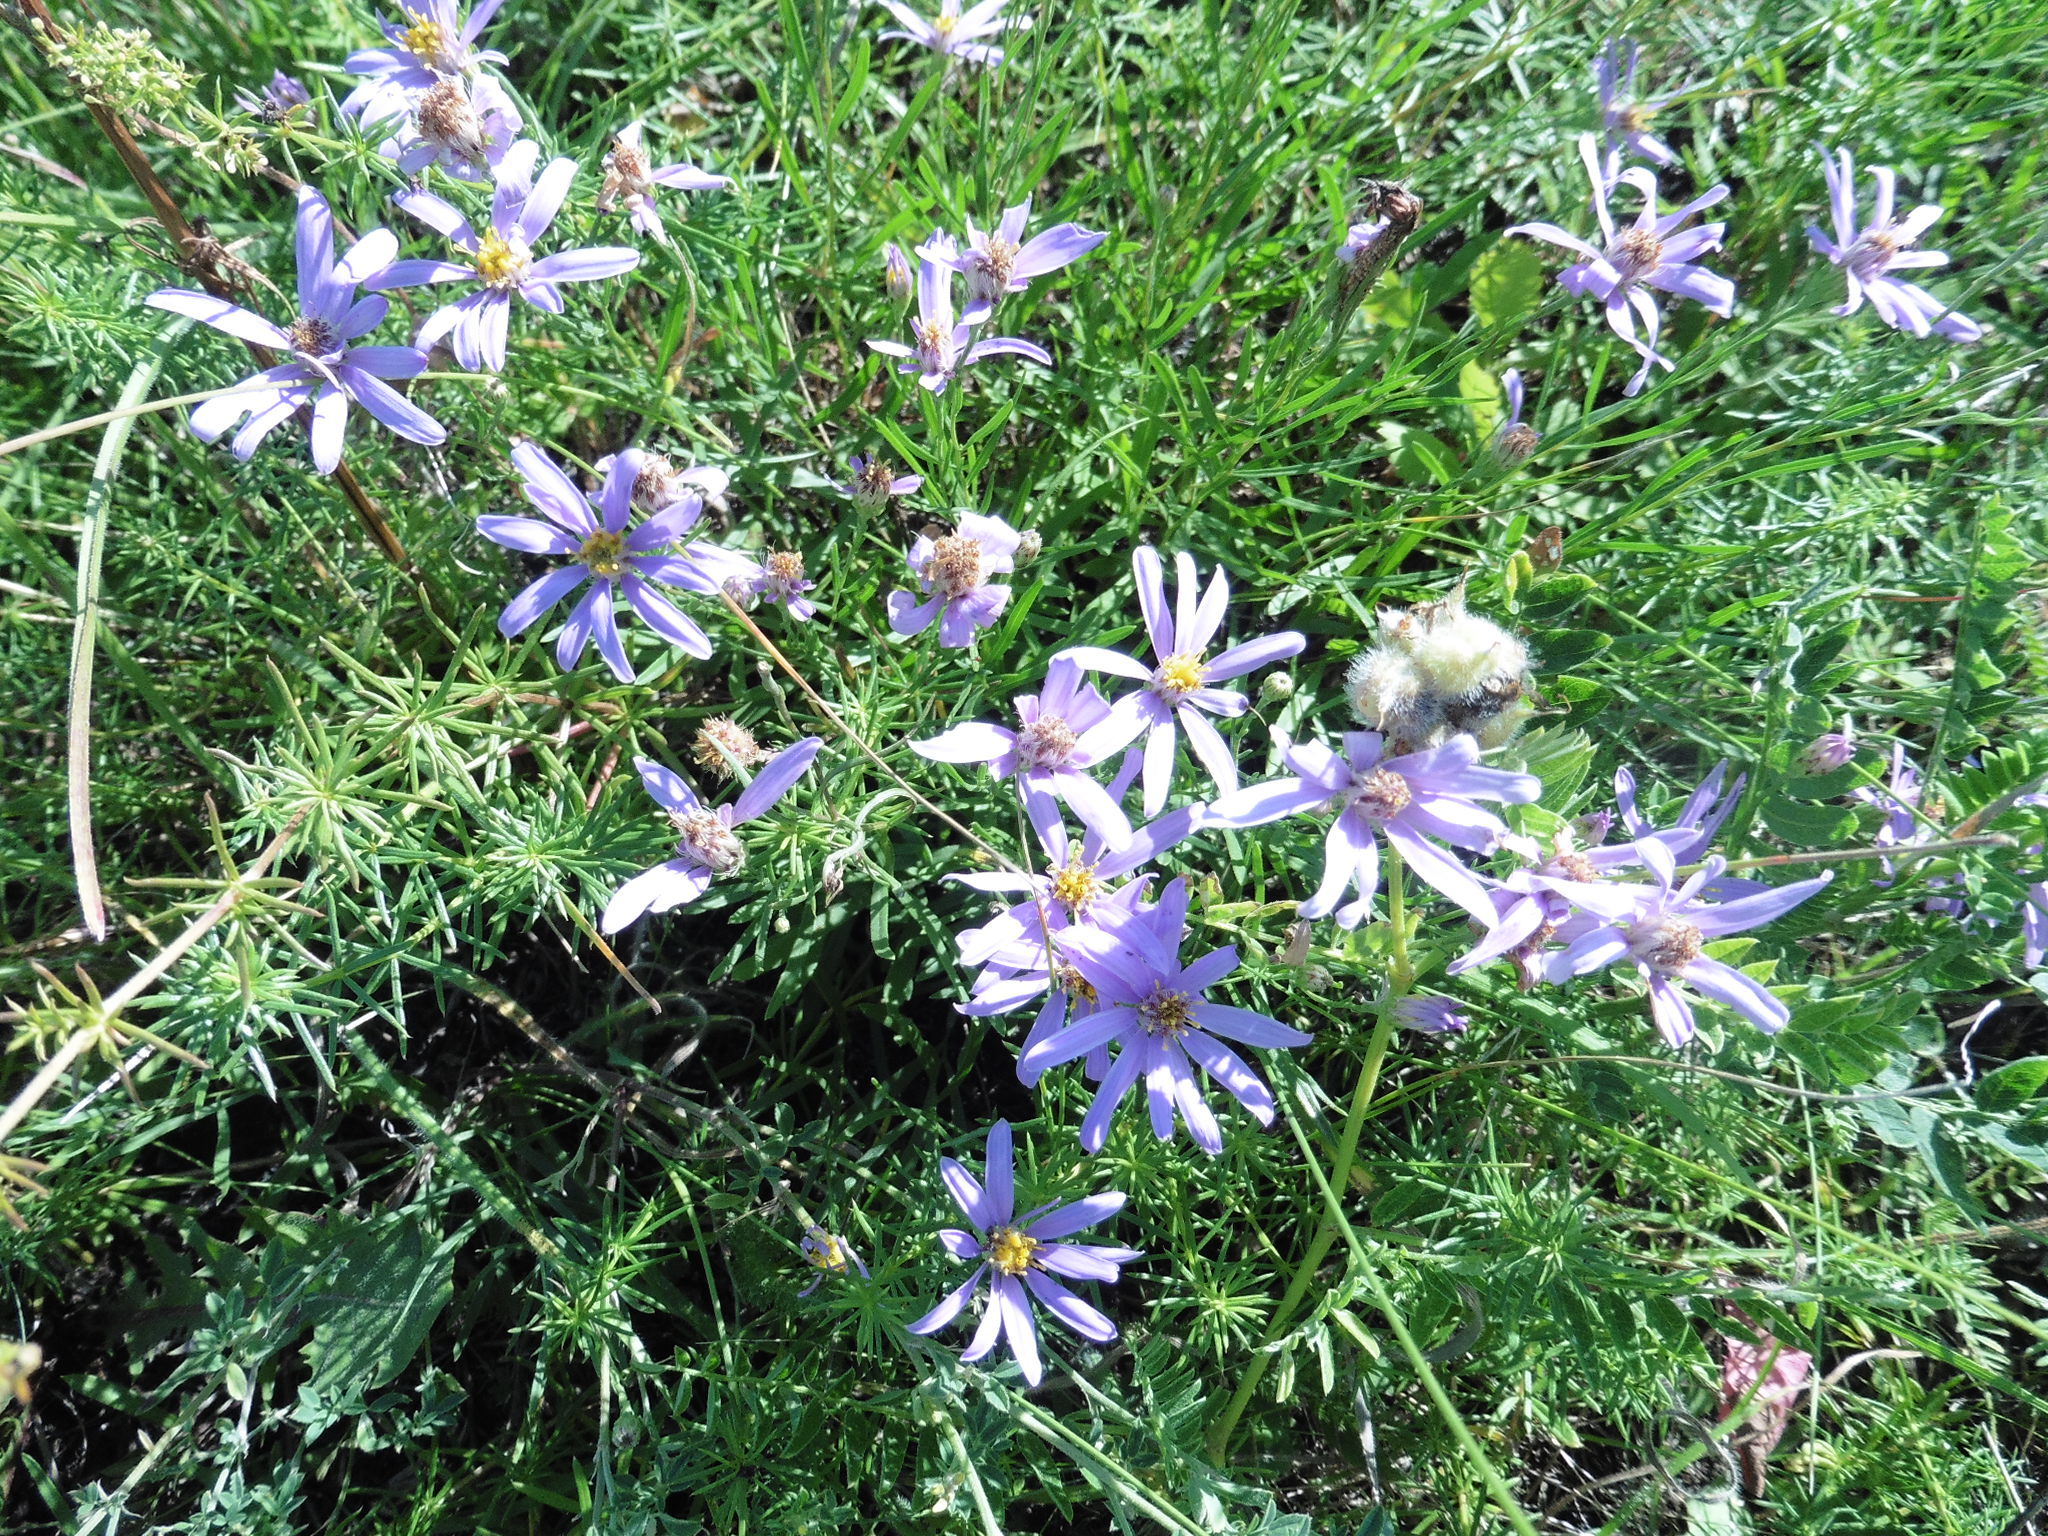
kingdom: Plantae
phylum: Tracheophyta
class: Magnoliopsida
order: Asterales
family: Asteraceae
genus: Galatella
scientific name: Galatella angustissima
